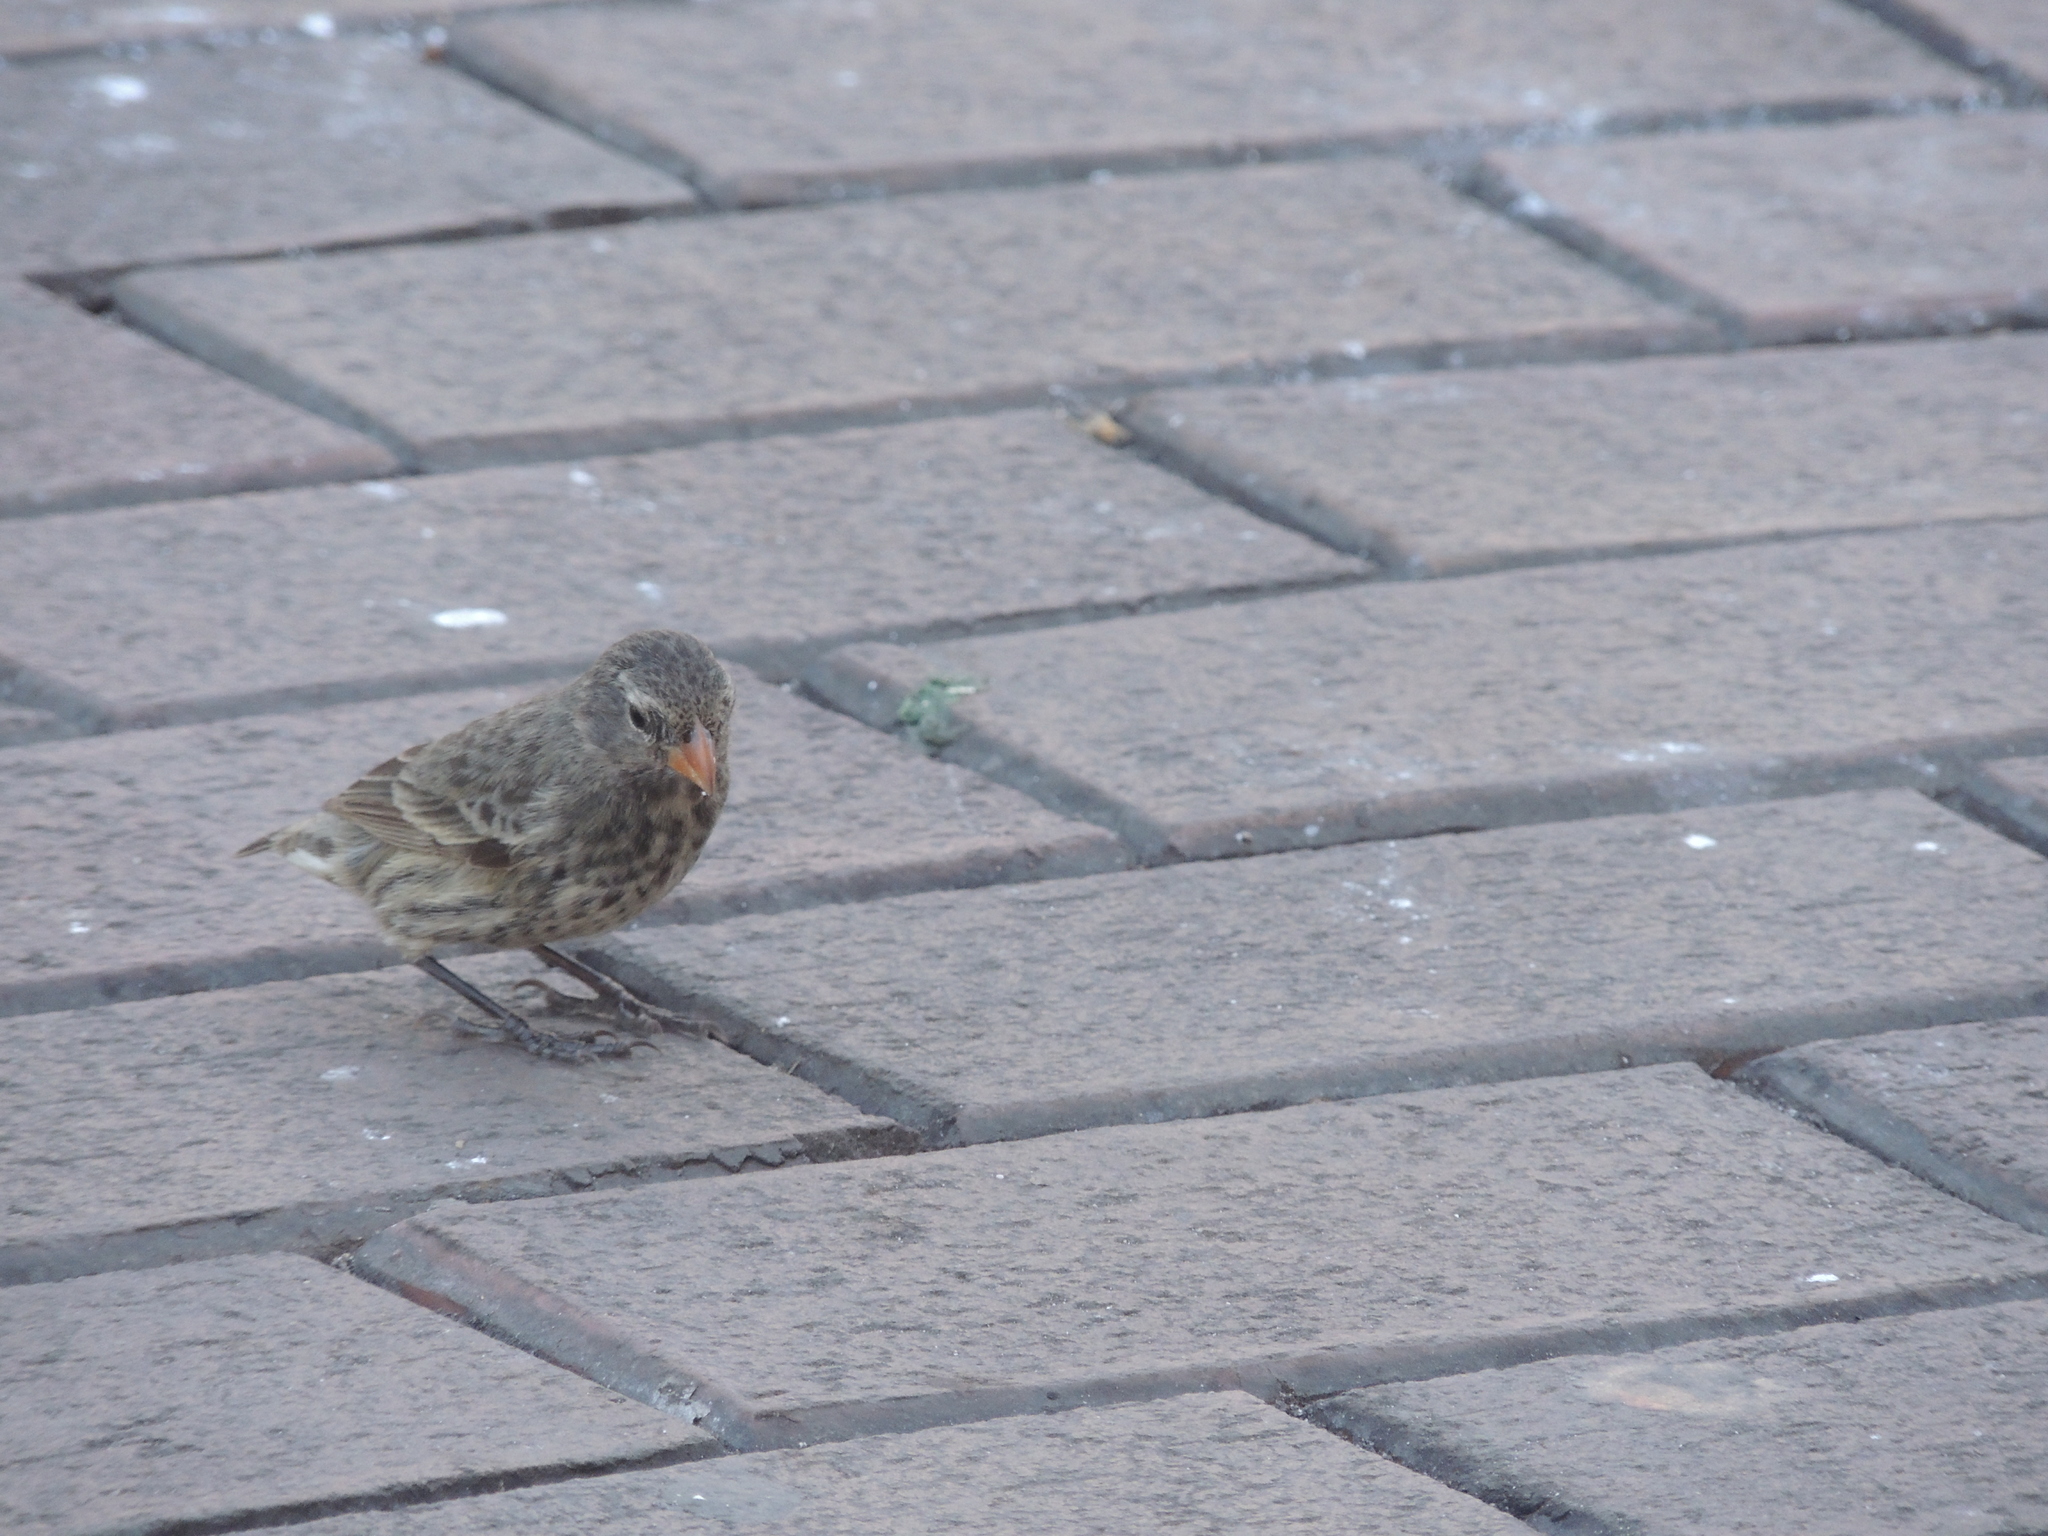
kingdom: Animalia
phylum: Chordata
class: Aves
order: Passeriformes
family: Thraupidae
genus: Geospiza
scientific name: Geospiza fortis
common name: Medium ground finch
